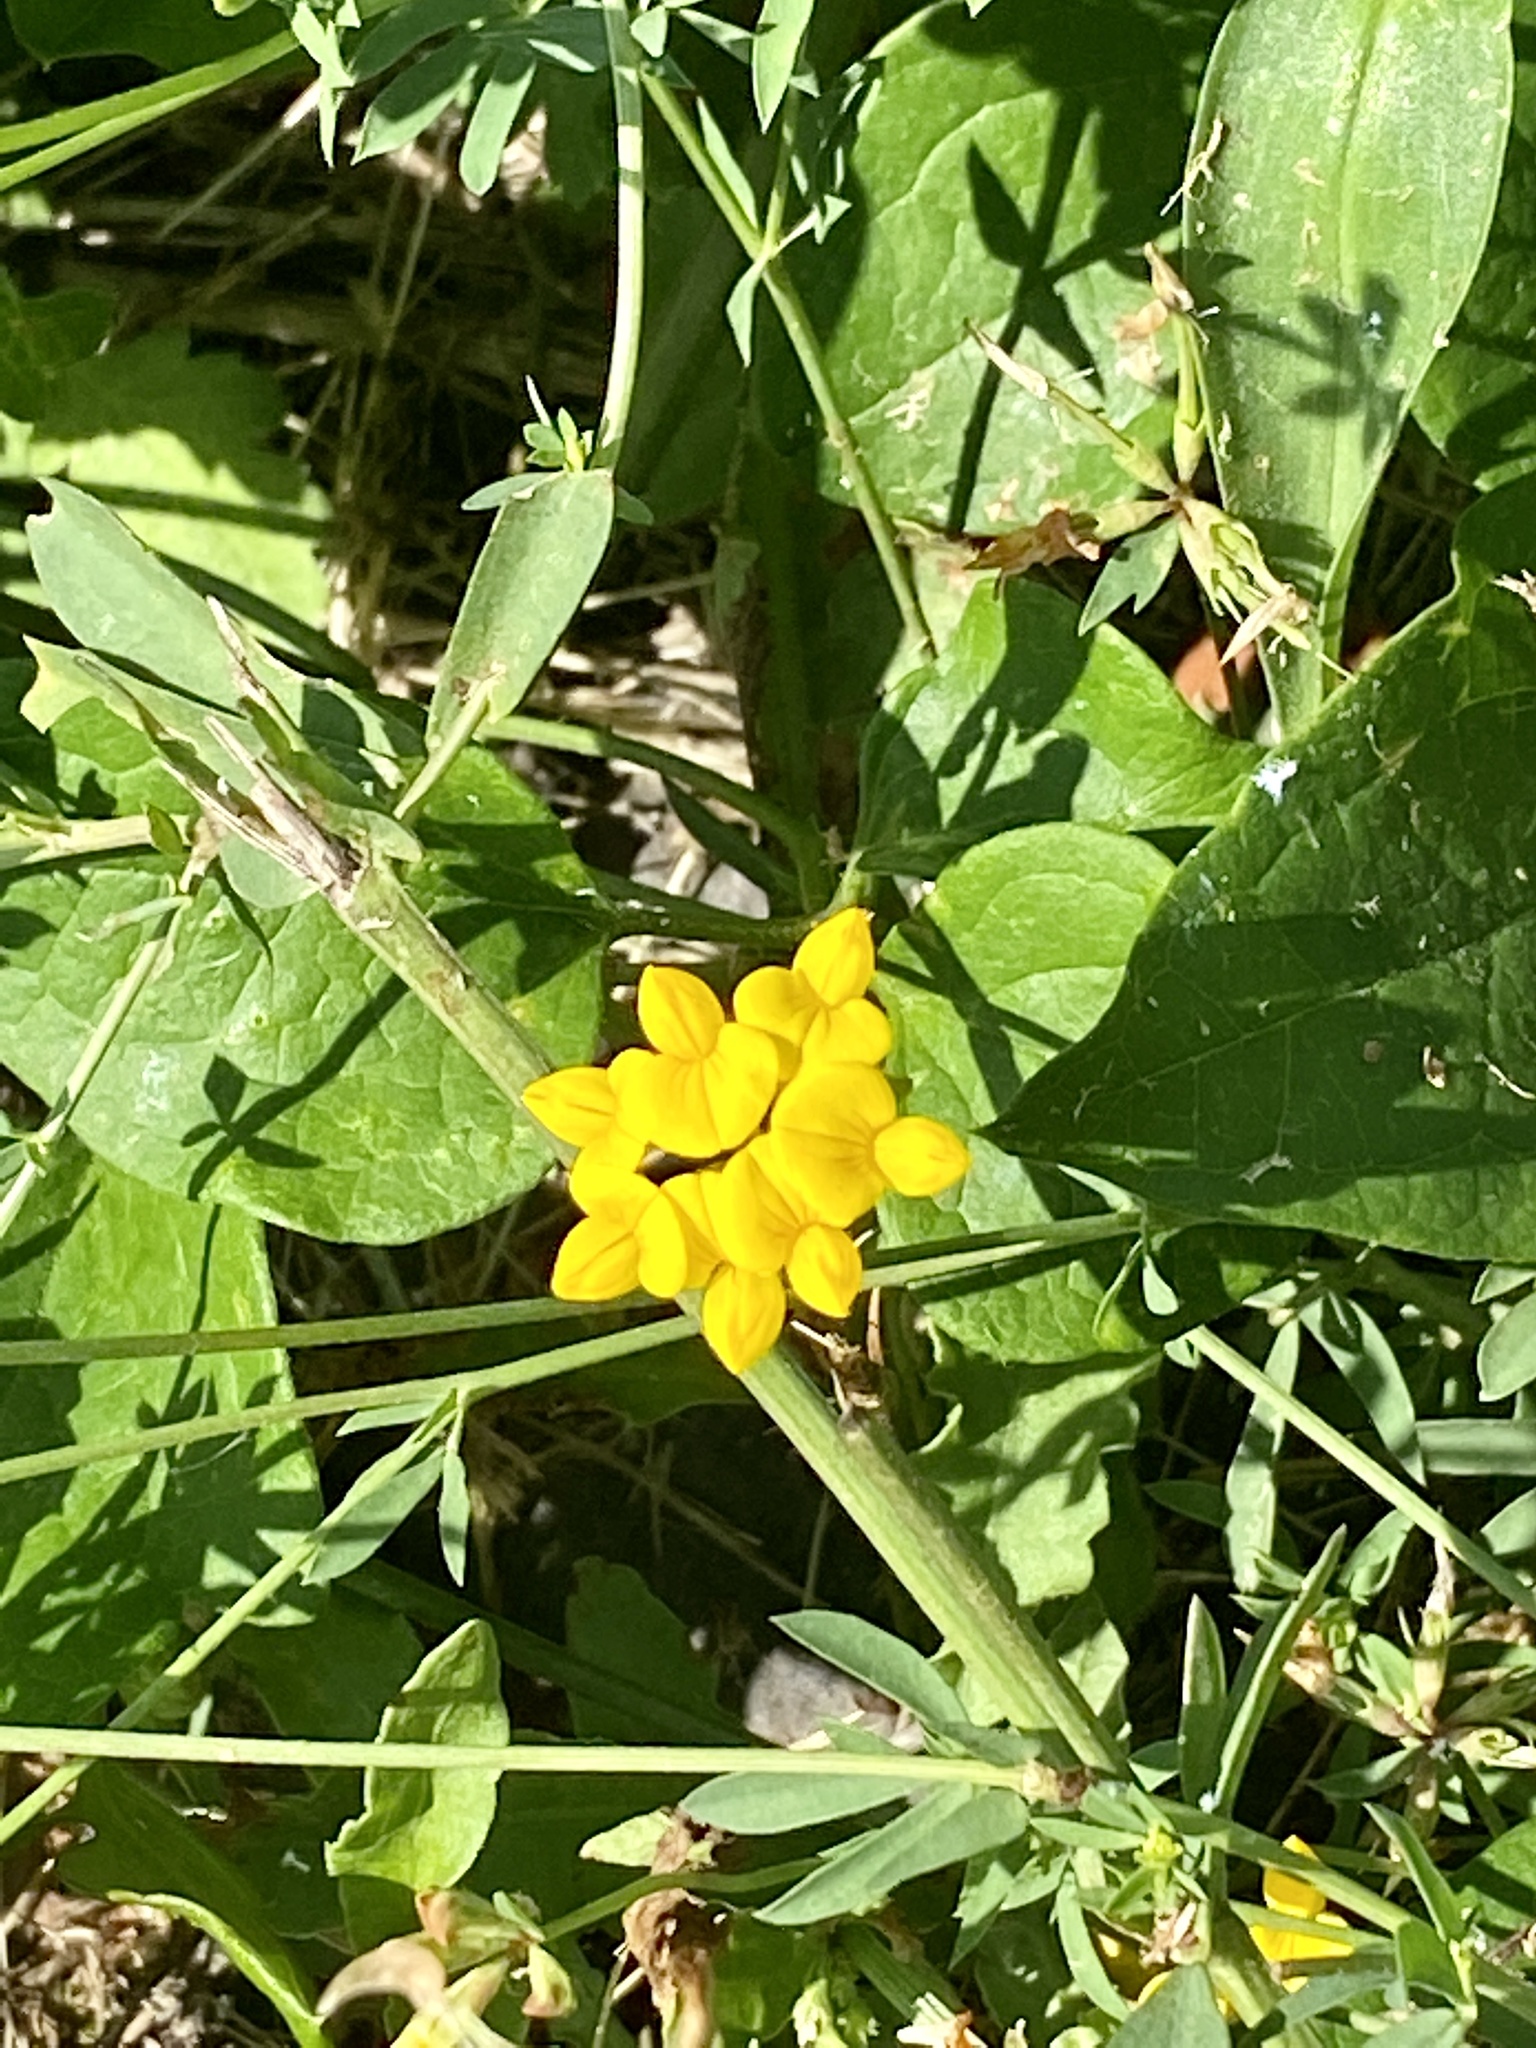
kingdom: Plantae
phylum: Tracheophyta
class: Magnoliopsida
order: Fabales
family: Fabaceae
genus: Lotus
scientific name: Lotus corniculatus
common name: Common bird's-foot-trefoil
